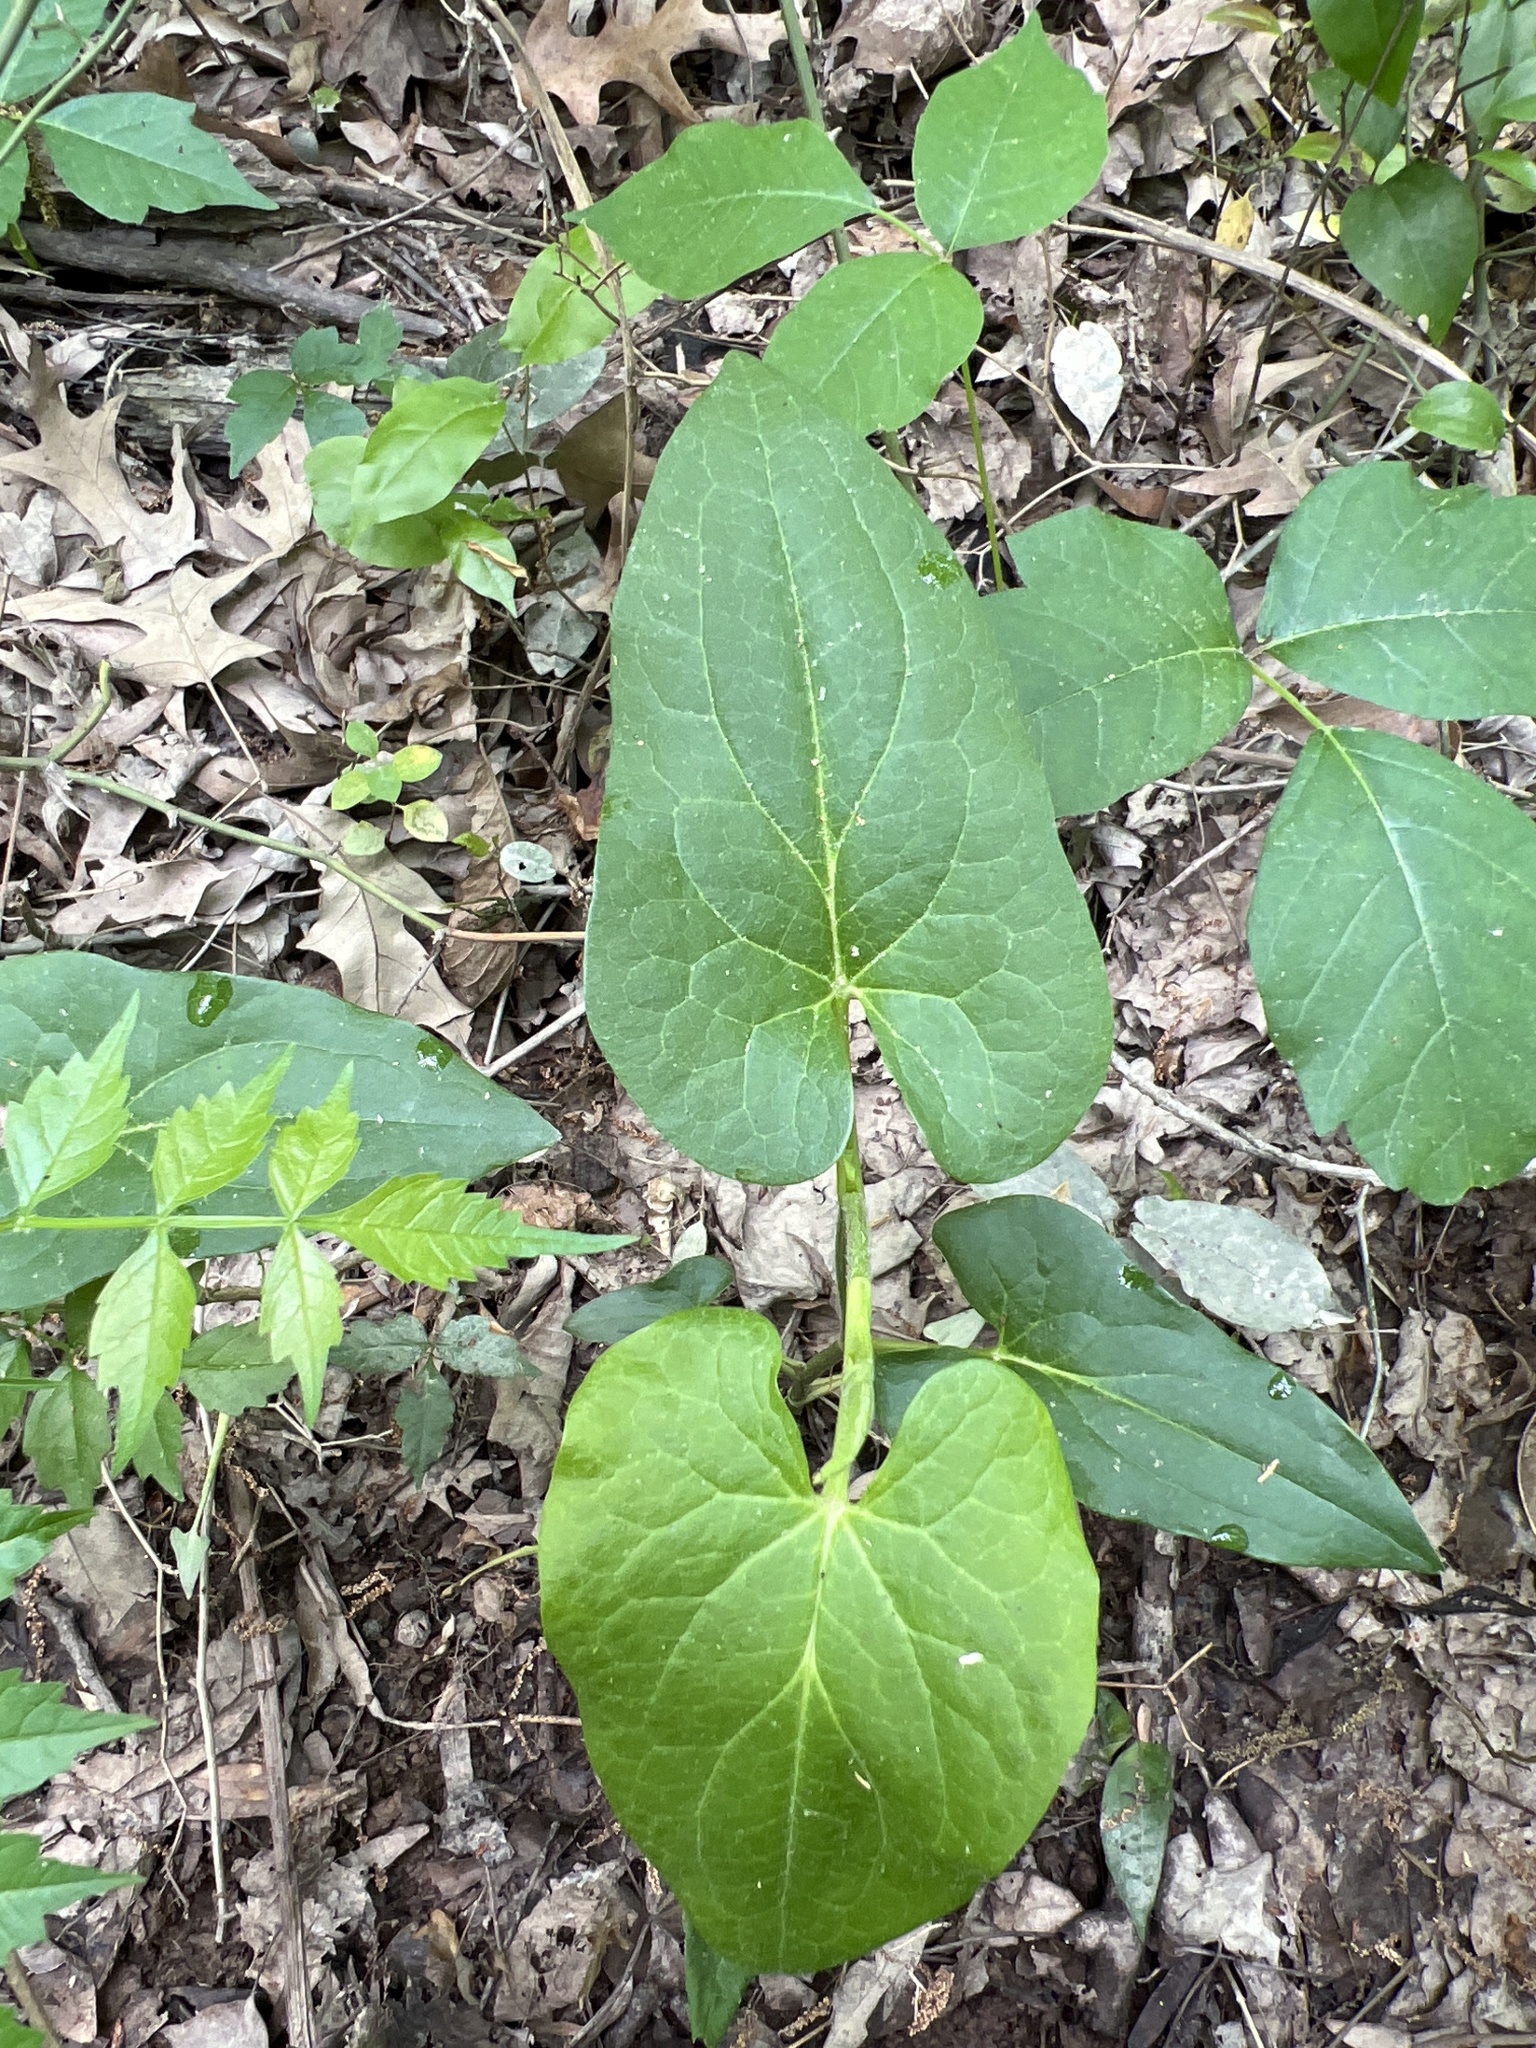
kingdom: Plantae
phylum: Tracheophyta
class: Magnoliopsida
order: Piperales
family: Saururaceae
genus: Saururus
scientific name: Saururus cernuus
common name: Lizard's-tail
